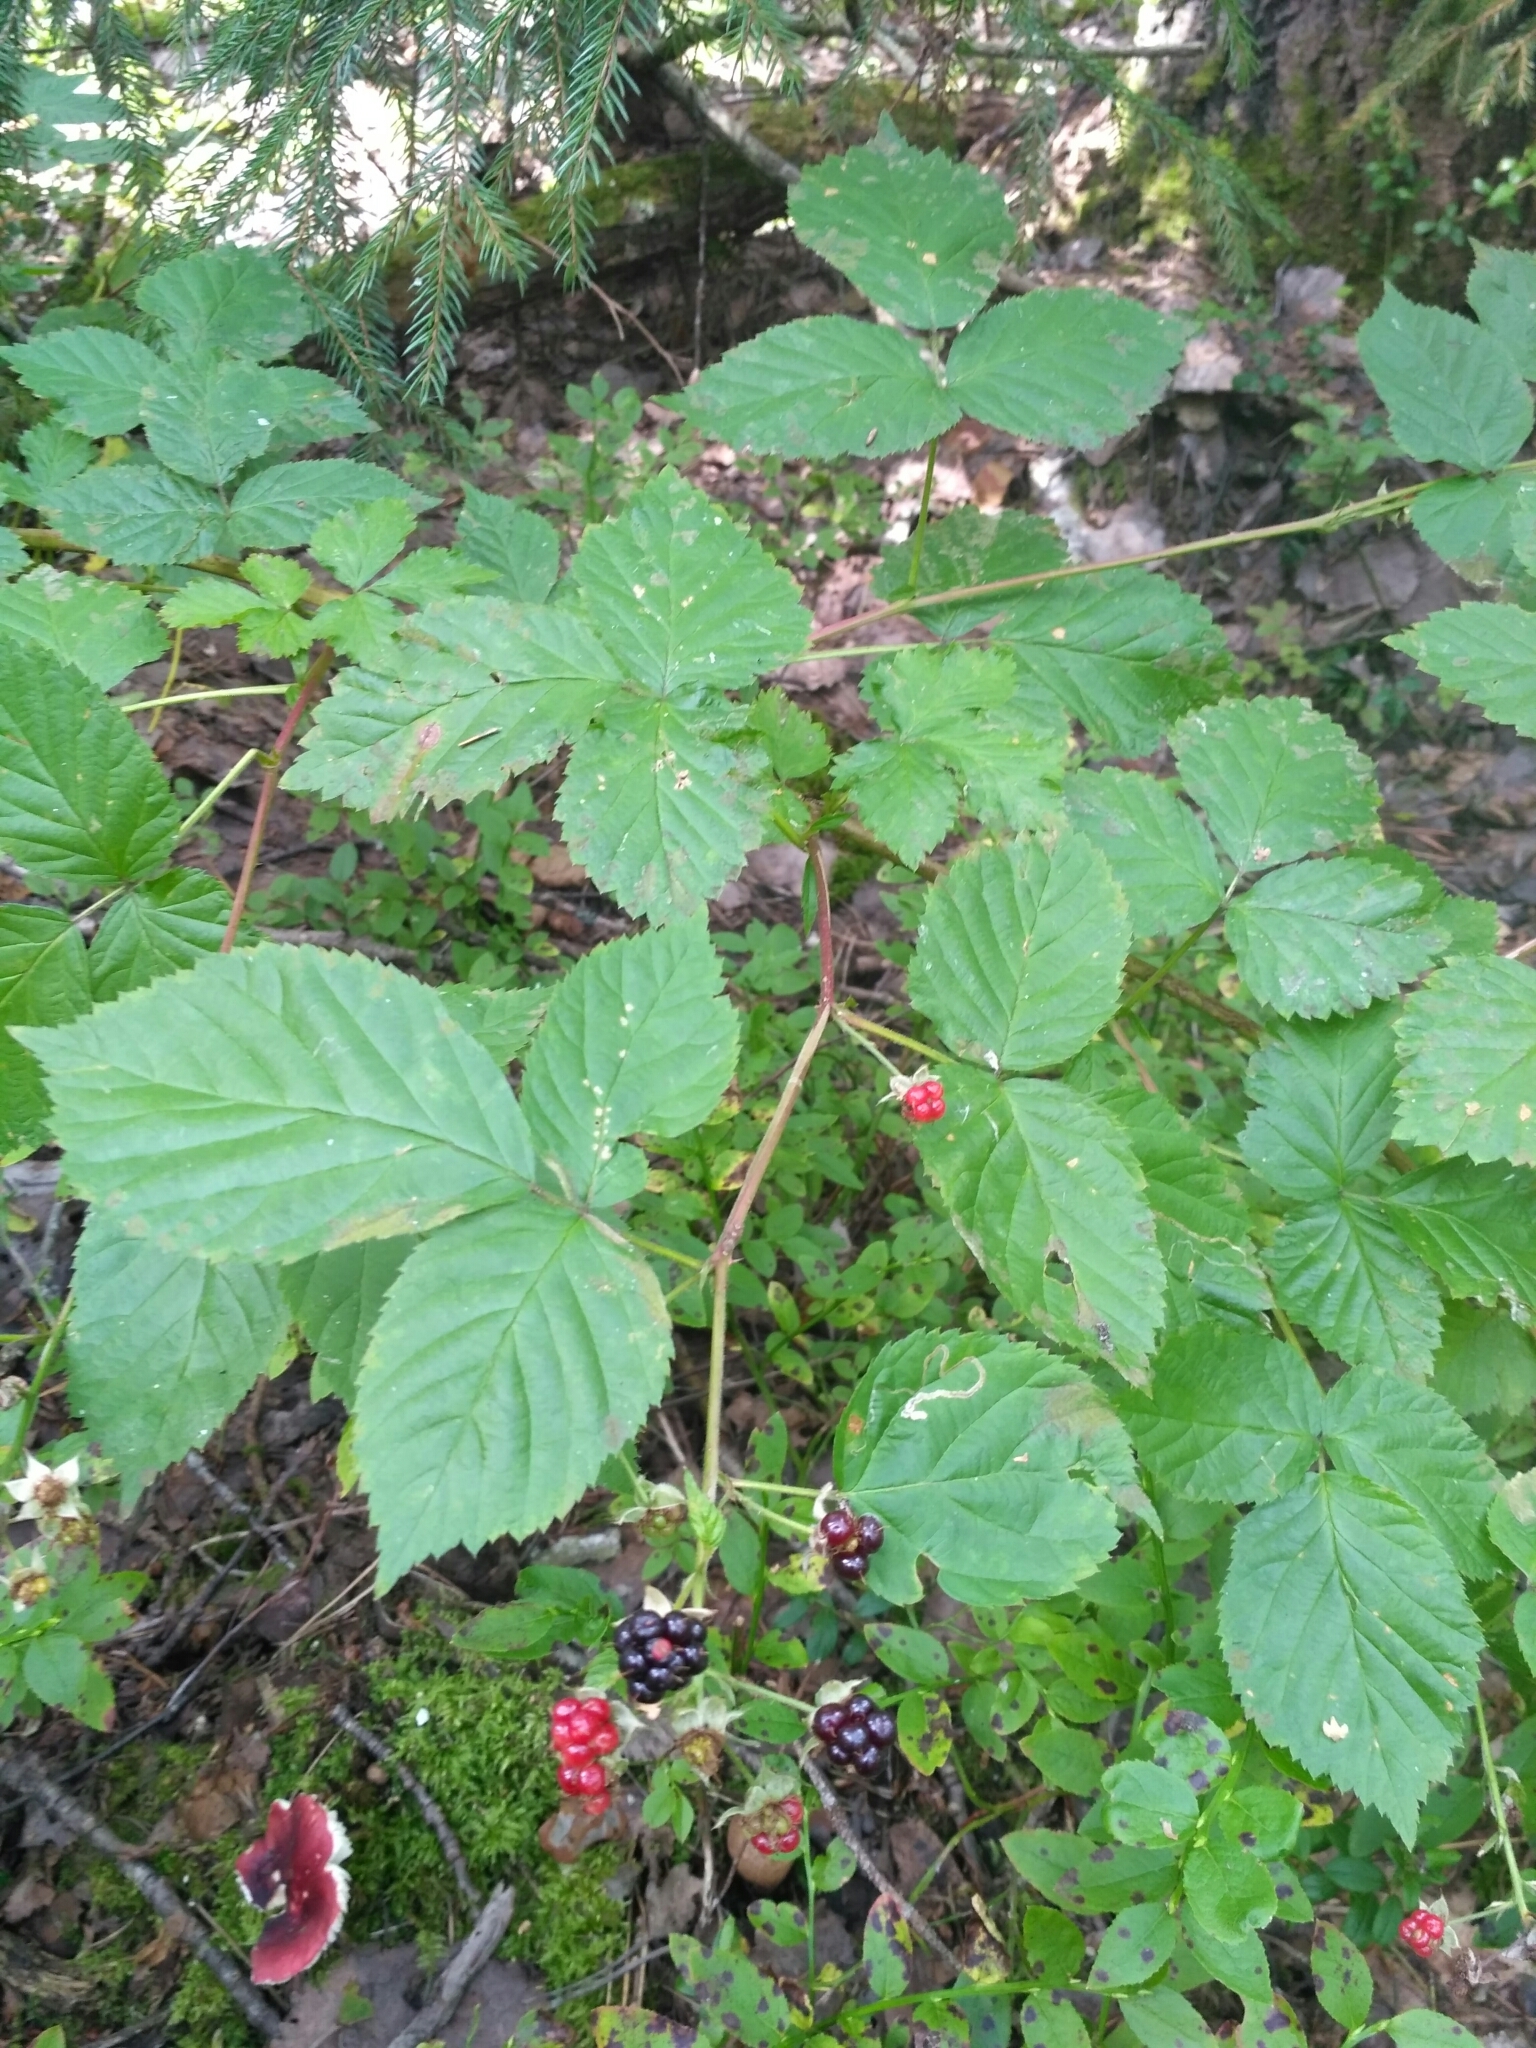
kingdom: Plantae
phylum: Tracheophyta
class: Magnoliopsida
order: Rosales
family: Rosaceae
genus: Rubus
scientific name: Rubus polonicus
